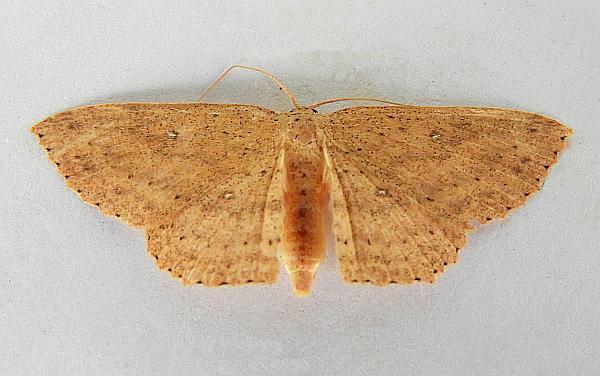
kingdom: Animalia
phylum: Arthropoda
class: Insecta
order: Lepidoptera
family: Geometridae
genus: Cyclophora
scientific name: Cyclophora myrtaria
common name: Waxmyrtle wave moth
